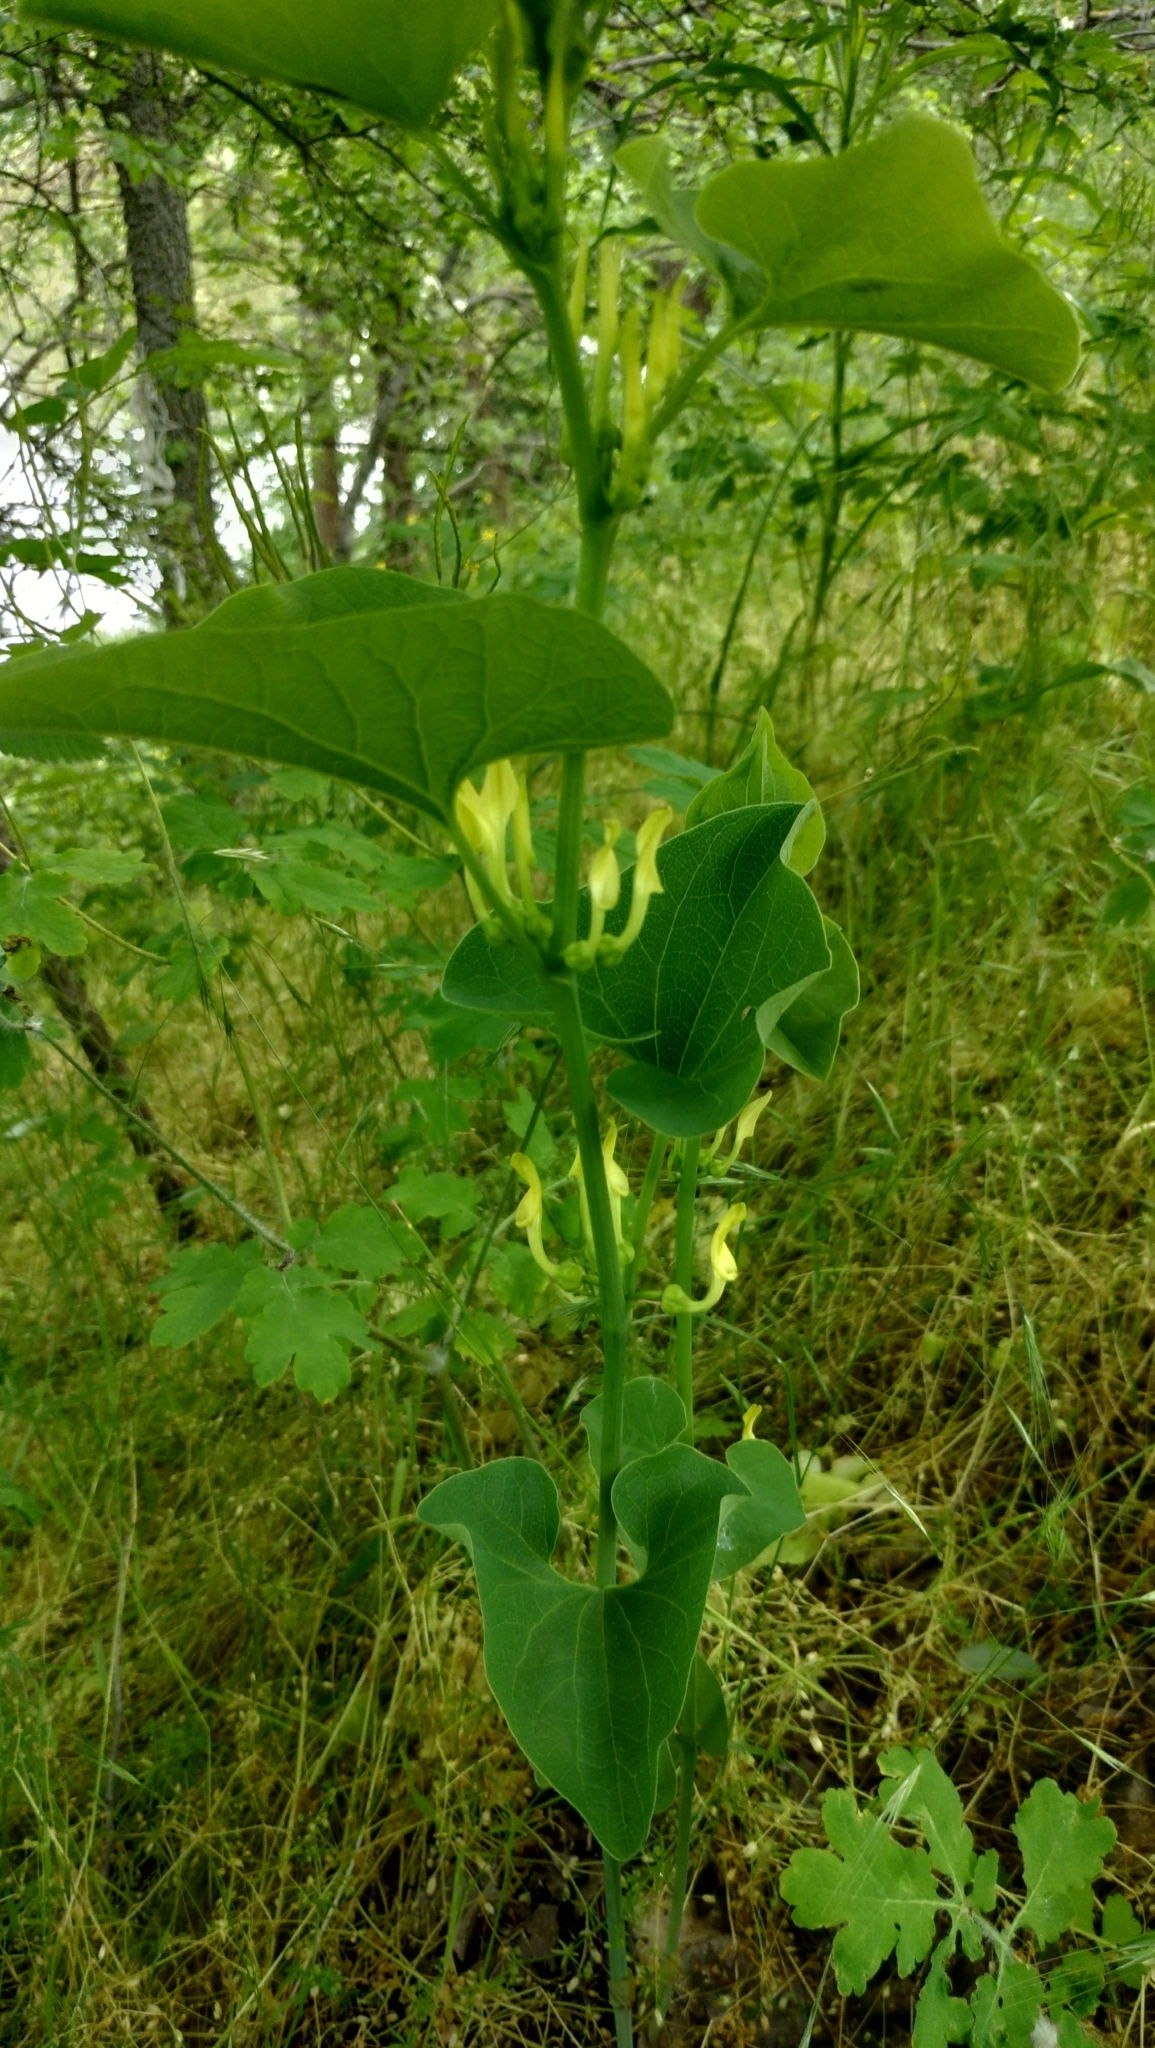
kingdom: Plantae
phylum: Tracheophyta
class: Magnoliopsida
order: Piperales
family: Aristolochiaceae
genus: Aristolochia
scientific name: Aristolochia clematitis
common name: Birthwort
